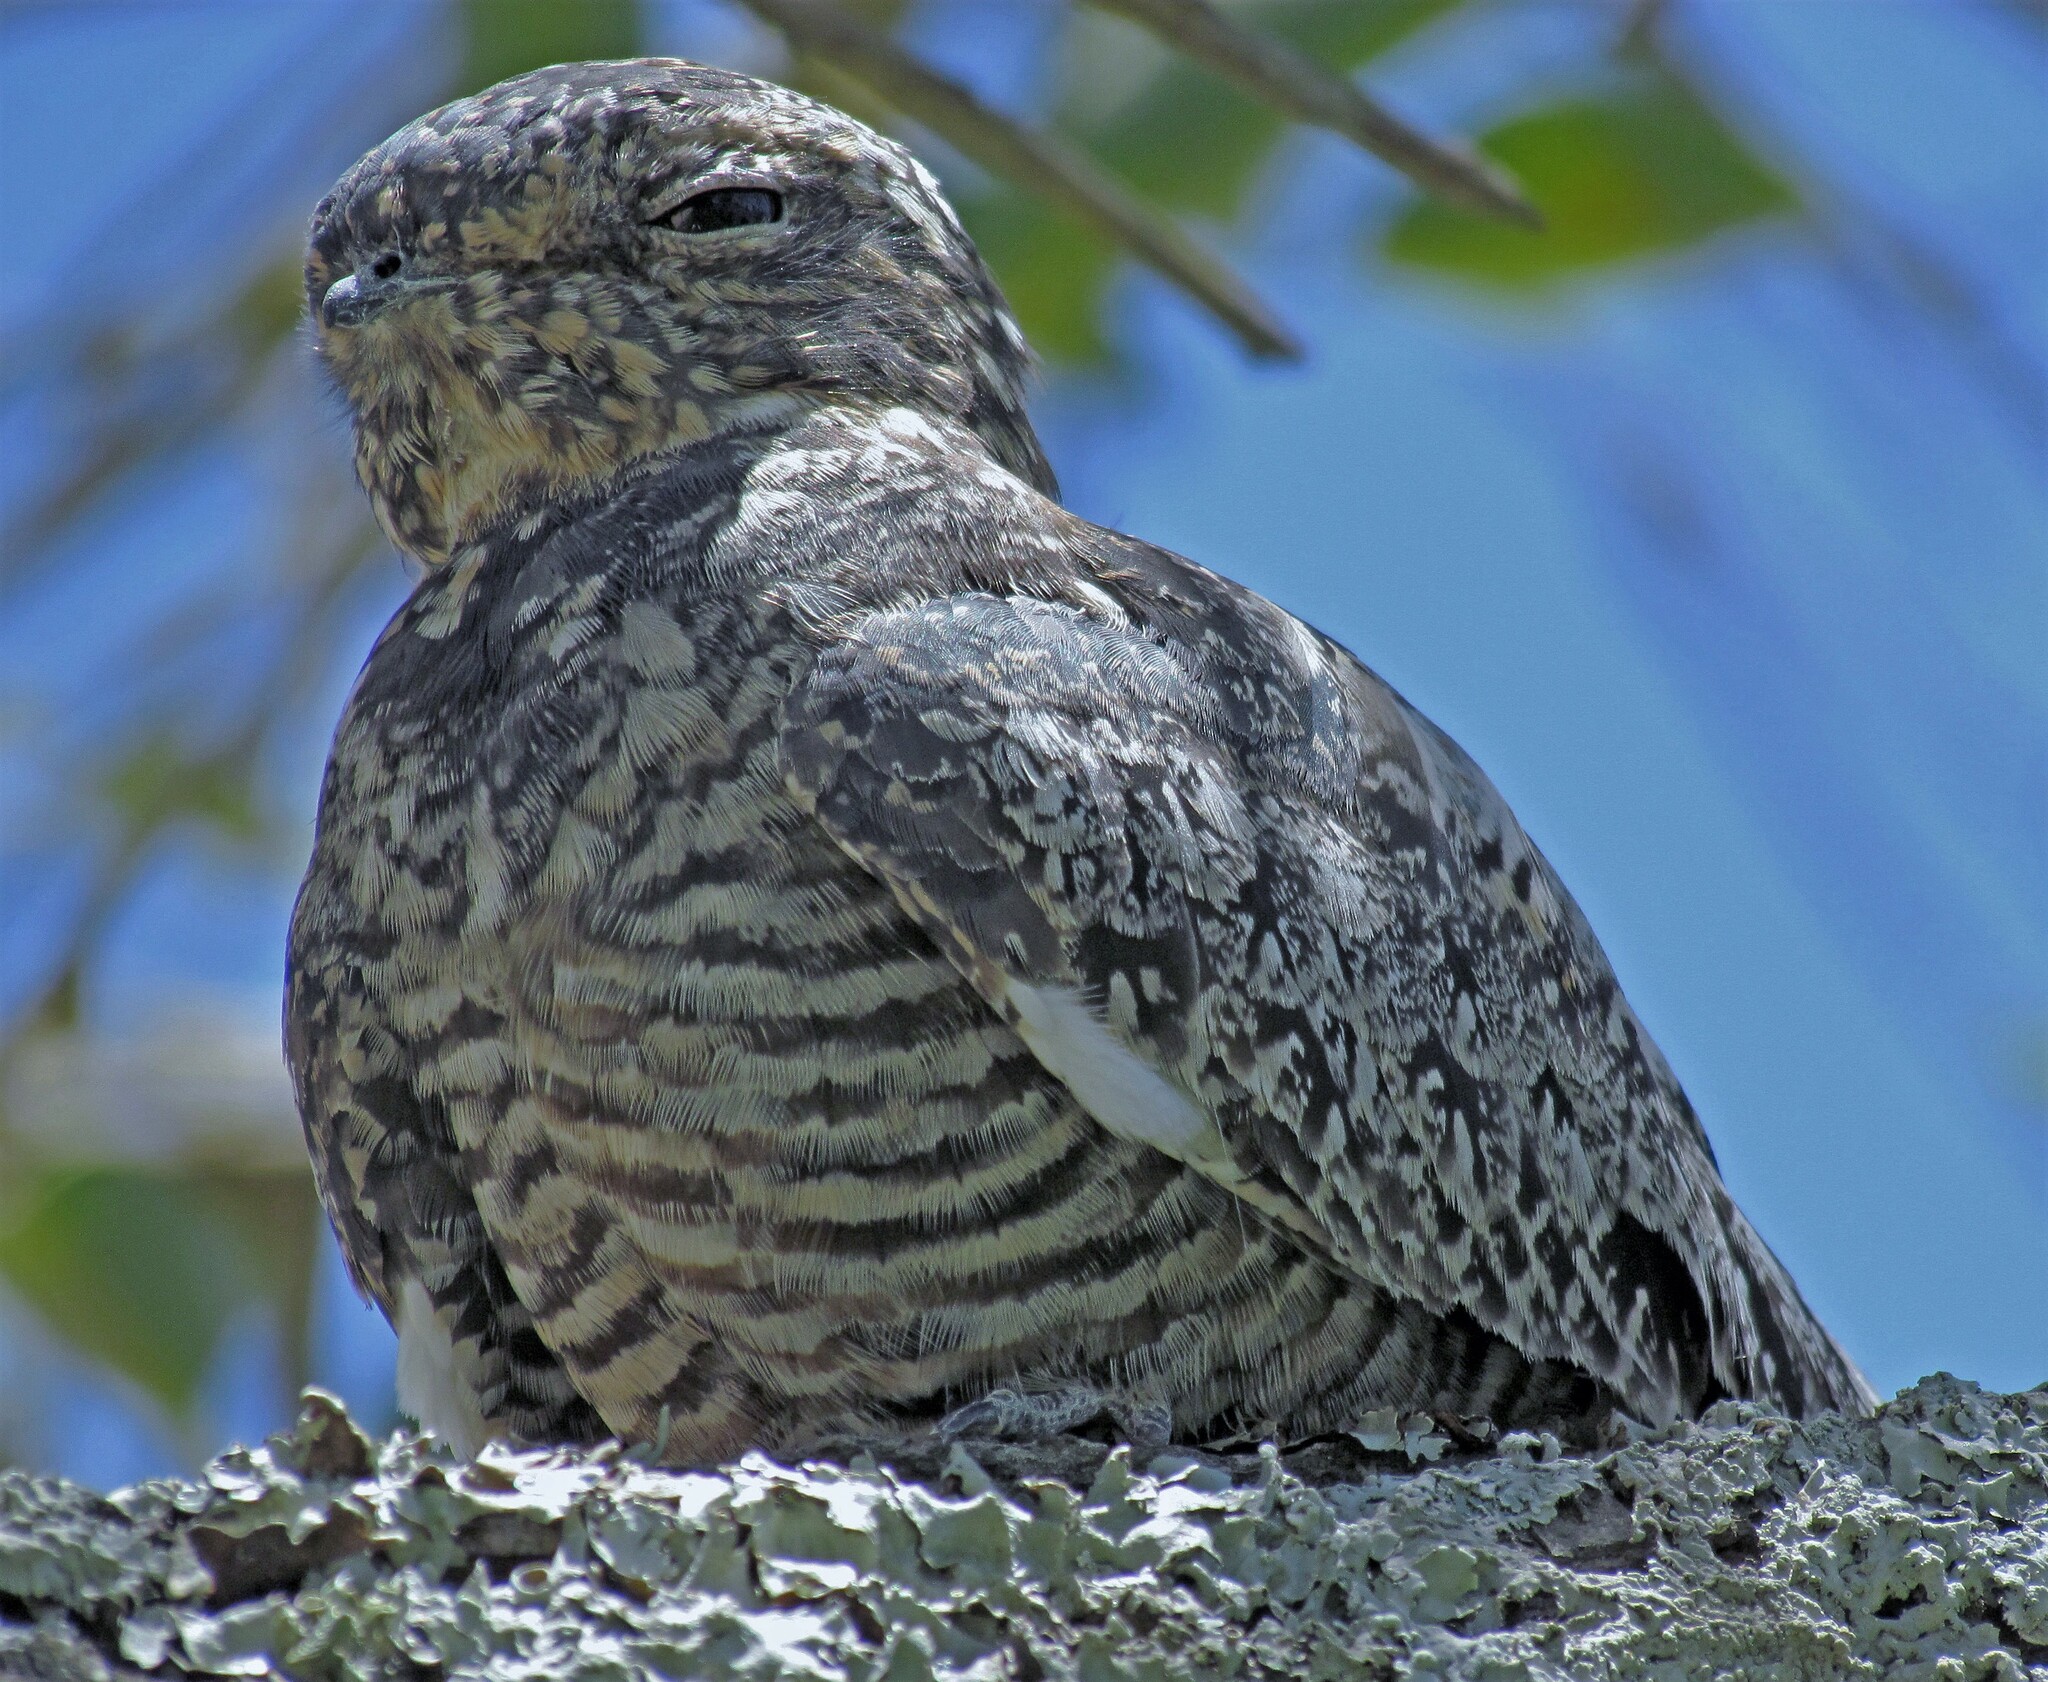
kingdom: Animalia
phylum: Chordata
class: Aves
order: Caprimulgiformes
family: Caprimulgidae
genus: Chordeiles
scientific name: Chordeiles minor
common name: Common nighthawk
